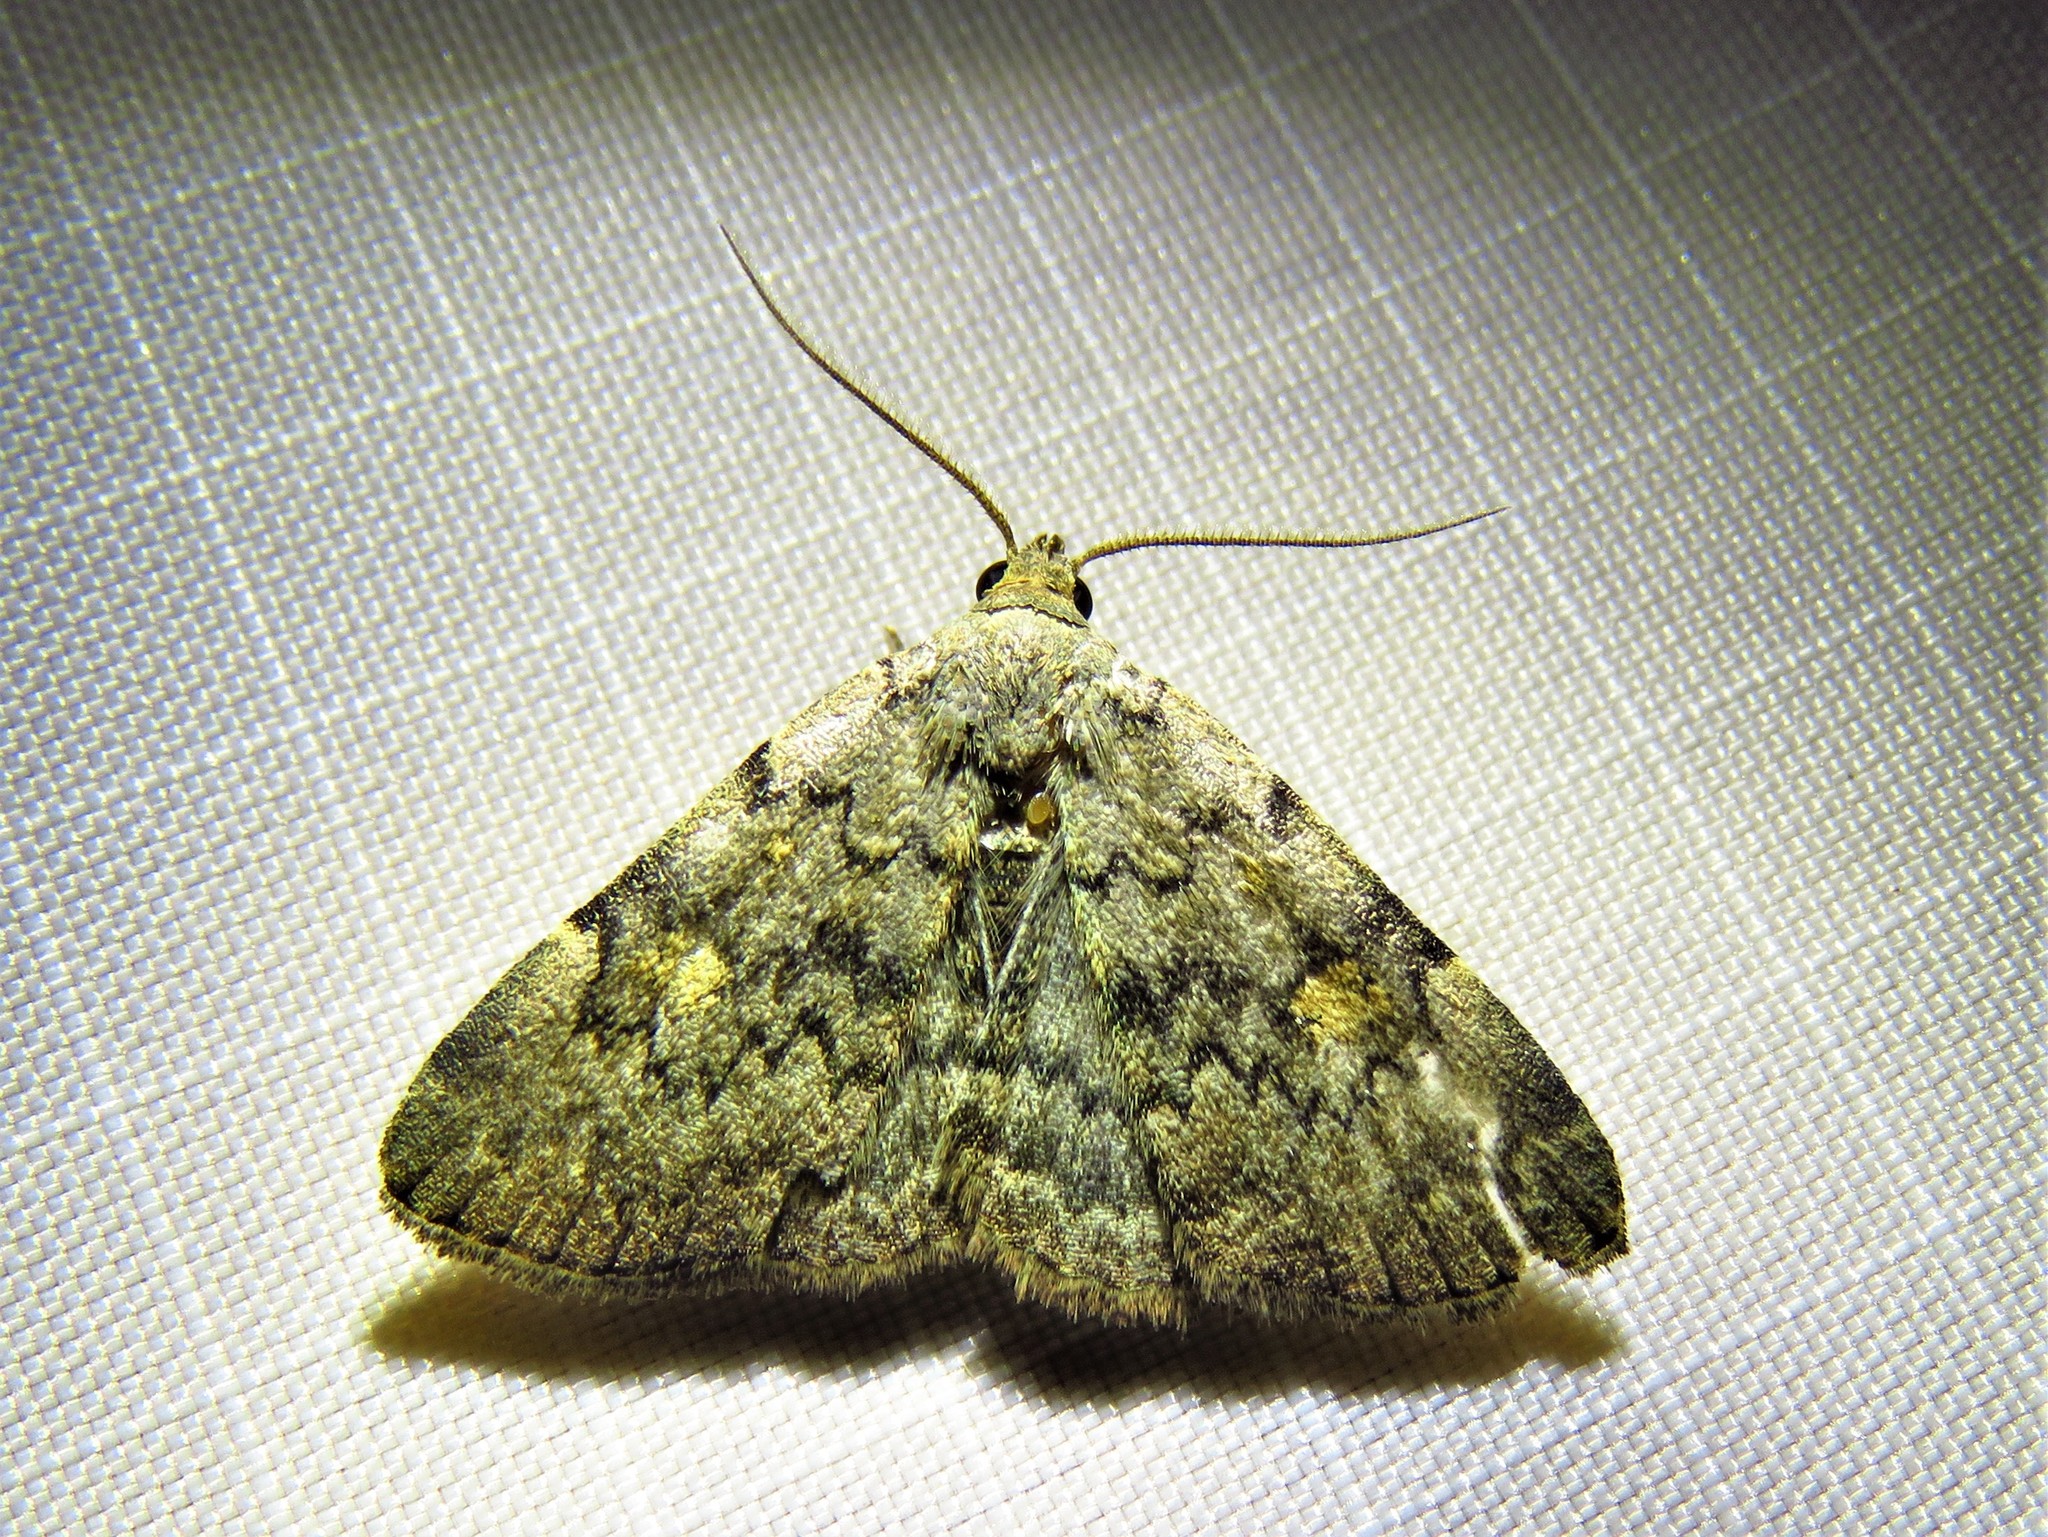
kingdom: Animalia
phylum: Arthropoda
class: Insecta
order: Lepidoptera
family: Erebidae
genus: Idia
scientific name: Idia aemula
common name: Common idia moth
